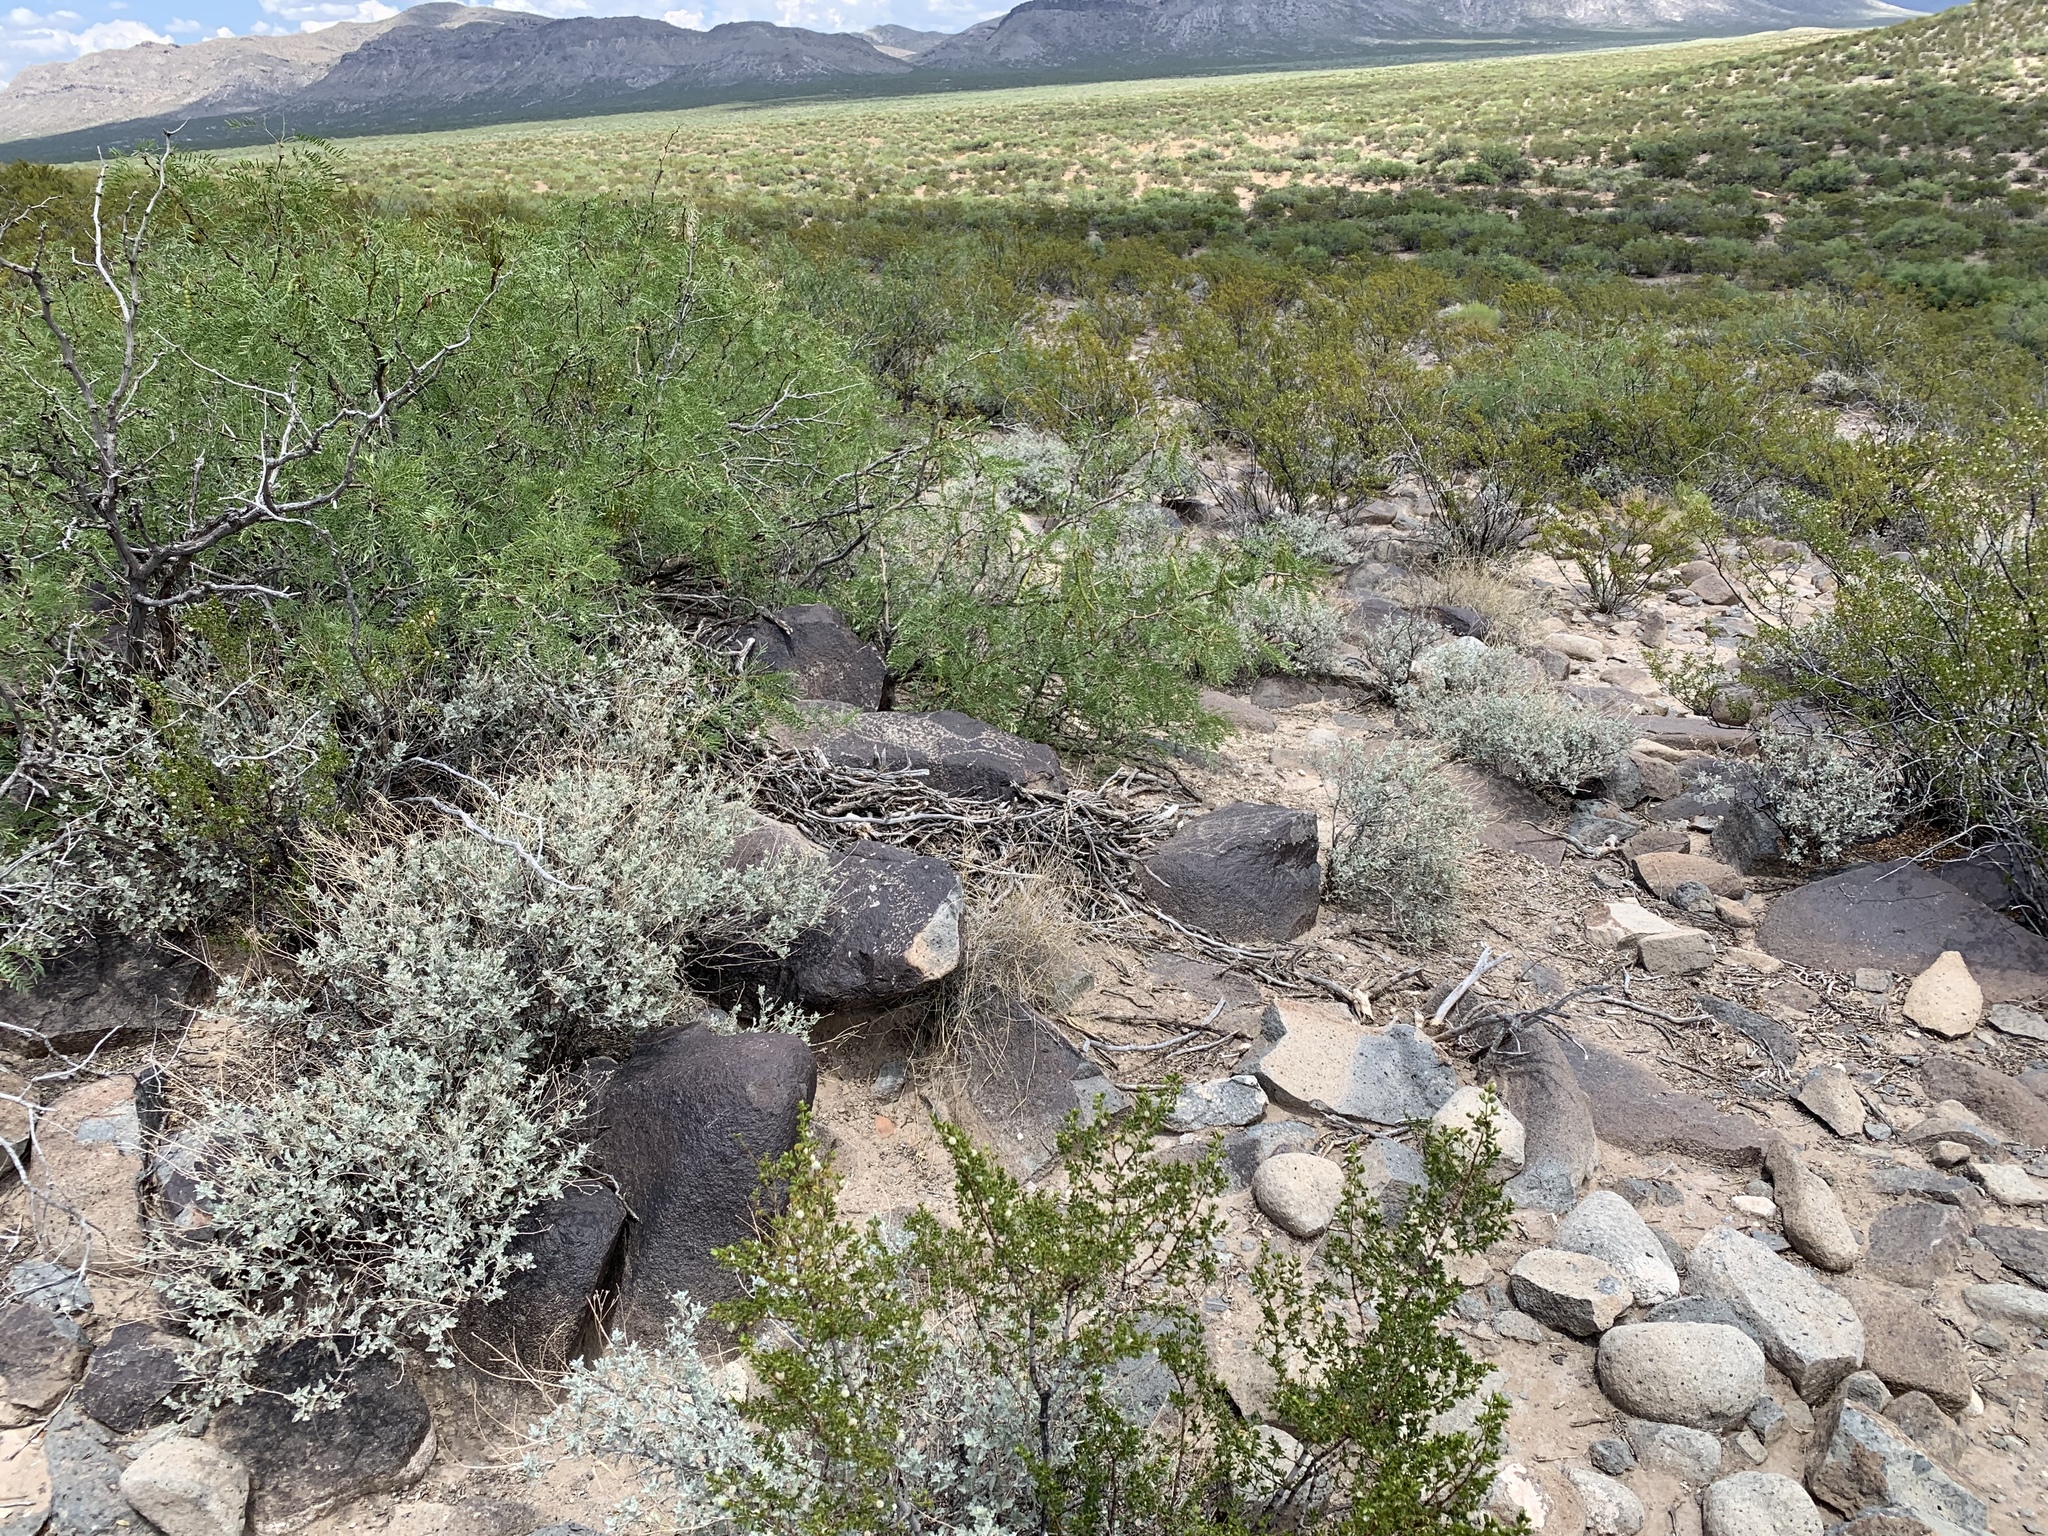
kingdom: Plantae
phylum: Tracheophyta
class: Magnoliopsida
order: Fabales
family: Fabaceae
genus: Prosopis
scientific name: Prosopis glandulosa
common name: Honey mesquite
